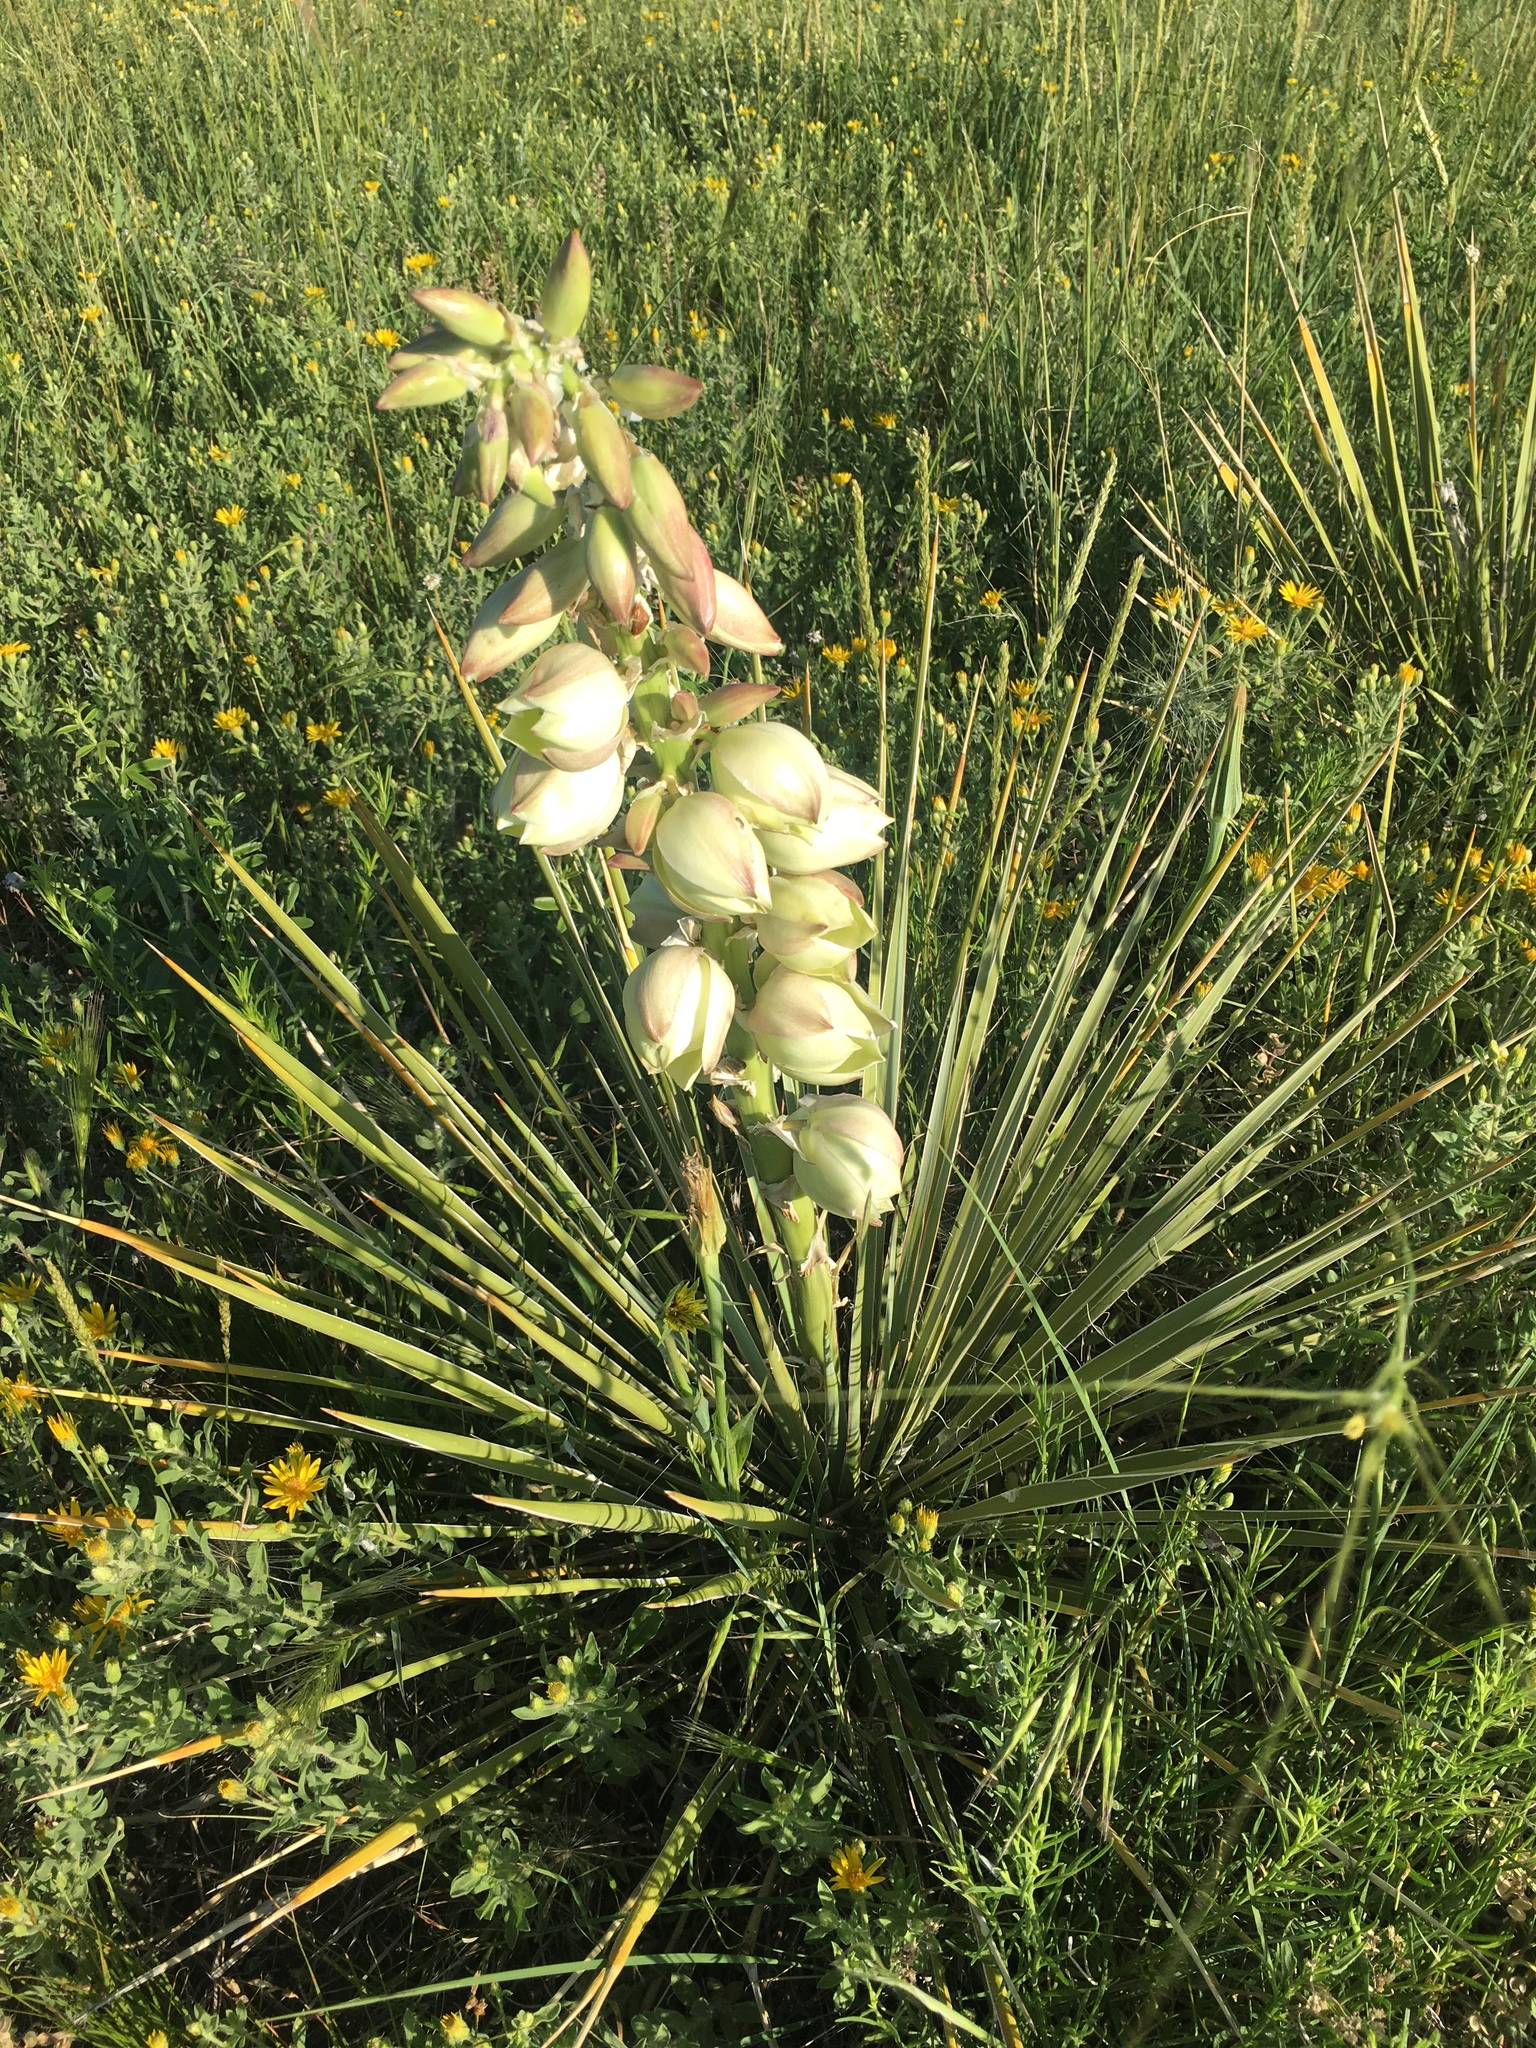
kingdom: Plantae
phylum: Tracheophyta
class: Liliopsida
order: Asparagales
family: Asparagaceae
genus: Yucca
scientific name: Yucca glauca
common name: Great plains yucca
